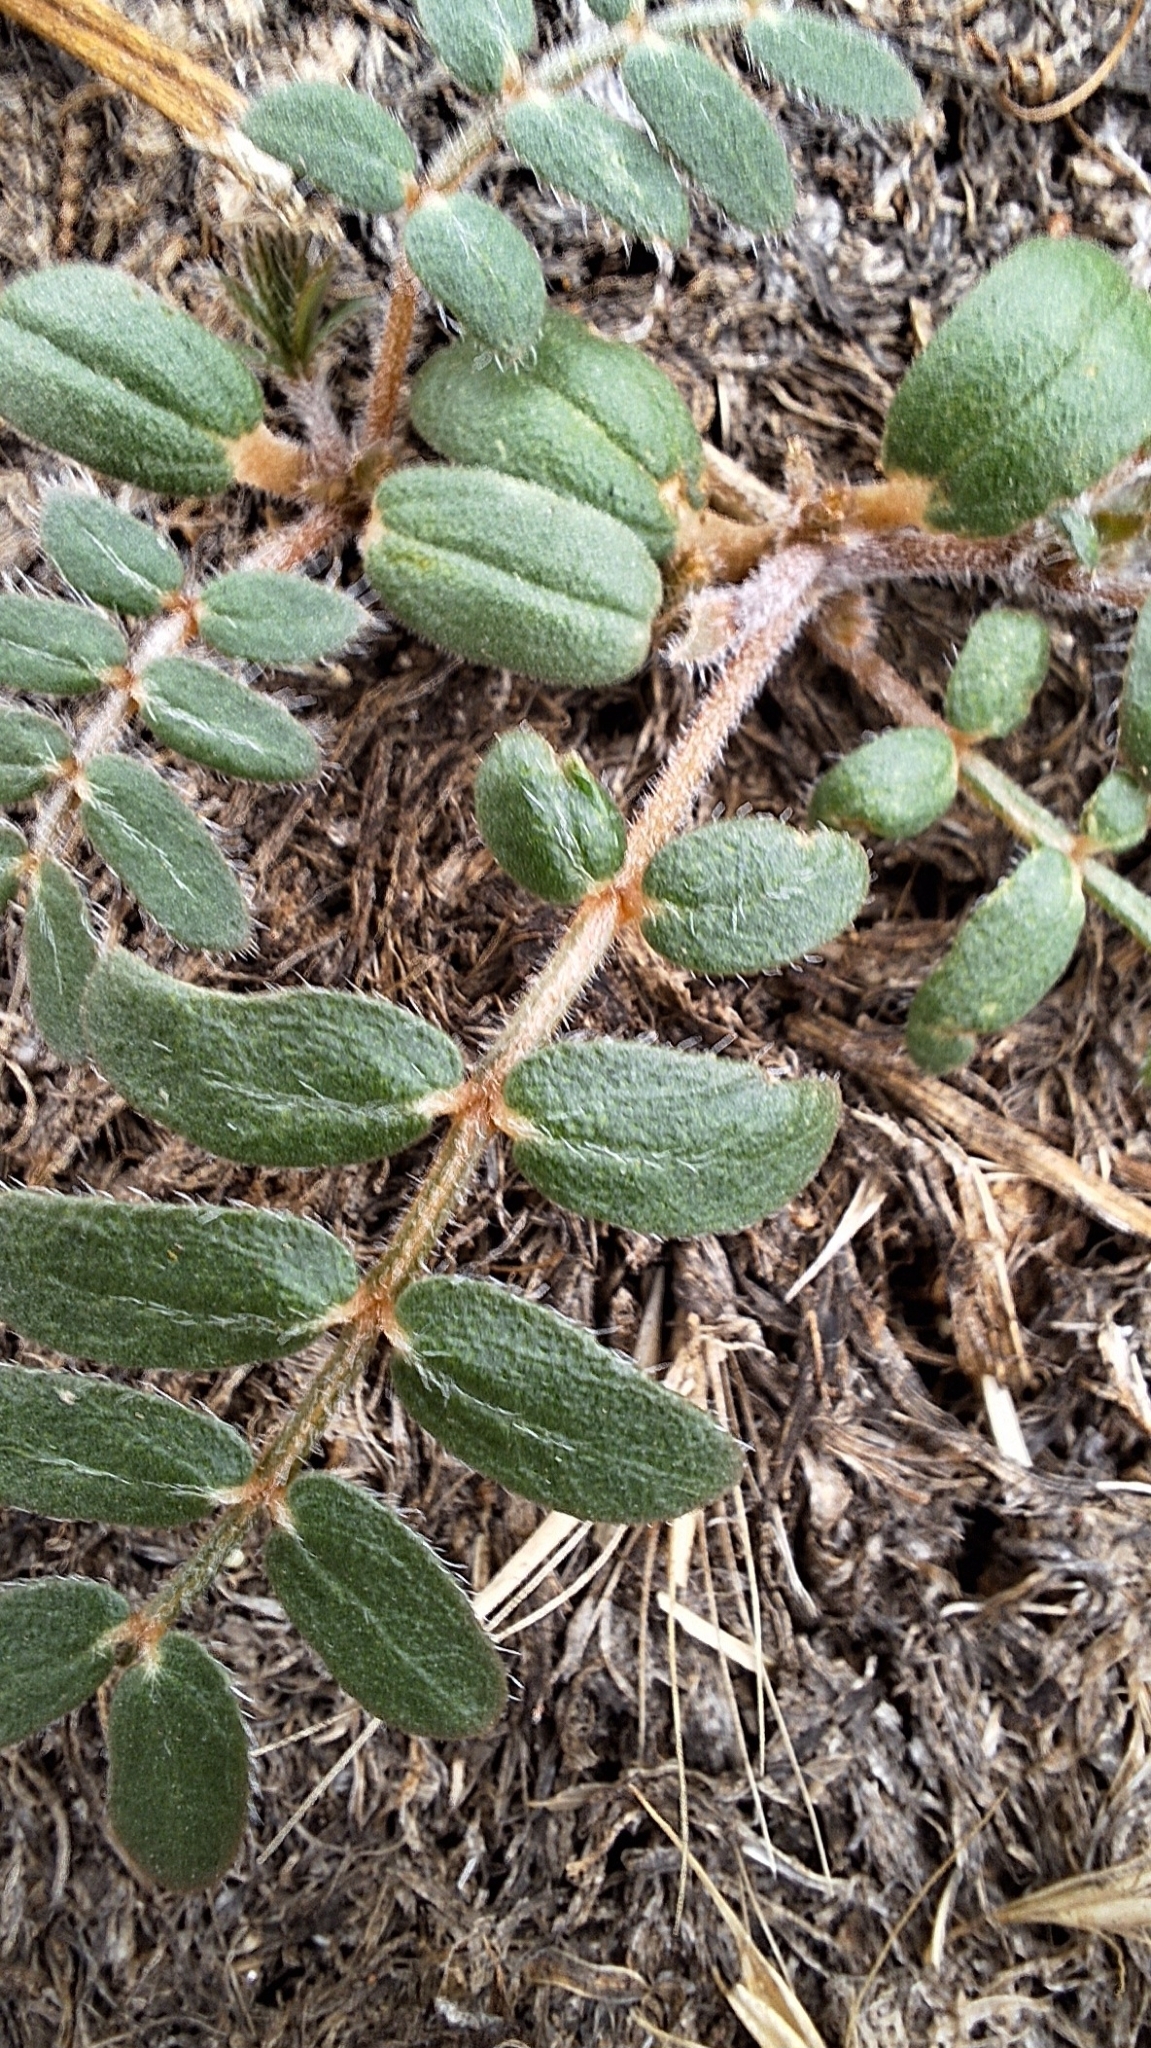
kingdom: Plantae
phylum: Tracheophyta
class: Magnoliopsida
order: Zygophyllales
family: Zygophyllaceae
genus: Tribulus
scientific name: Tribulus terrestris
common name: Puncturevine
